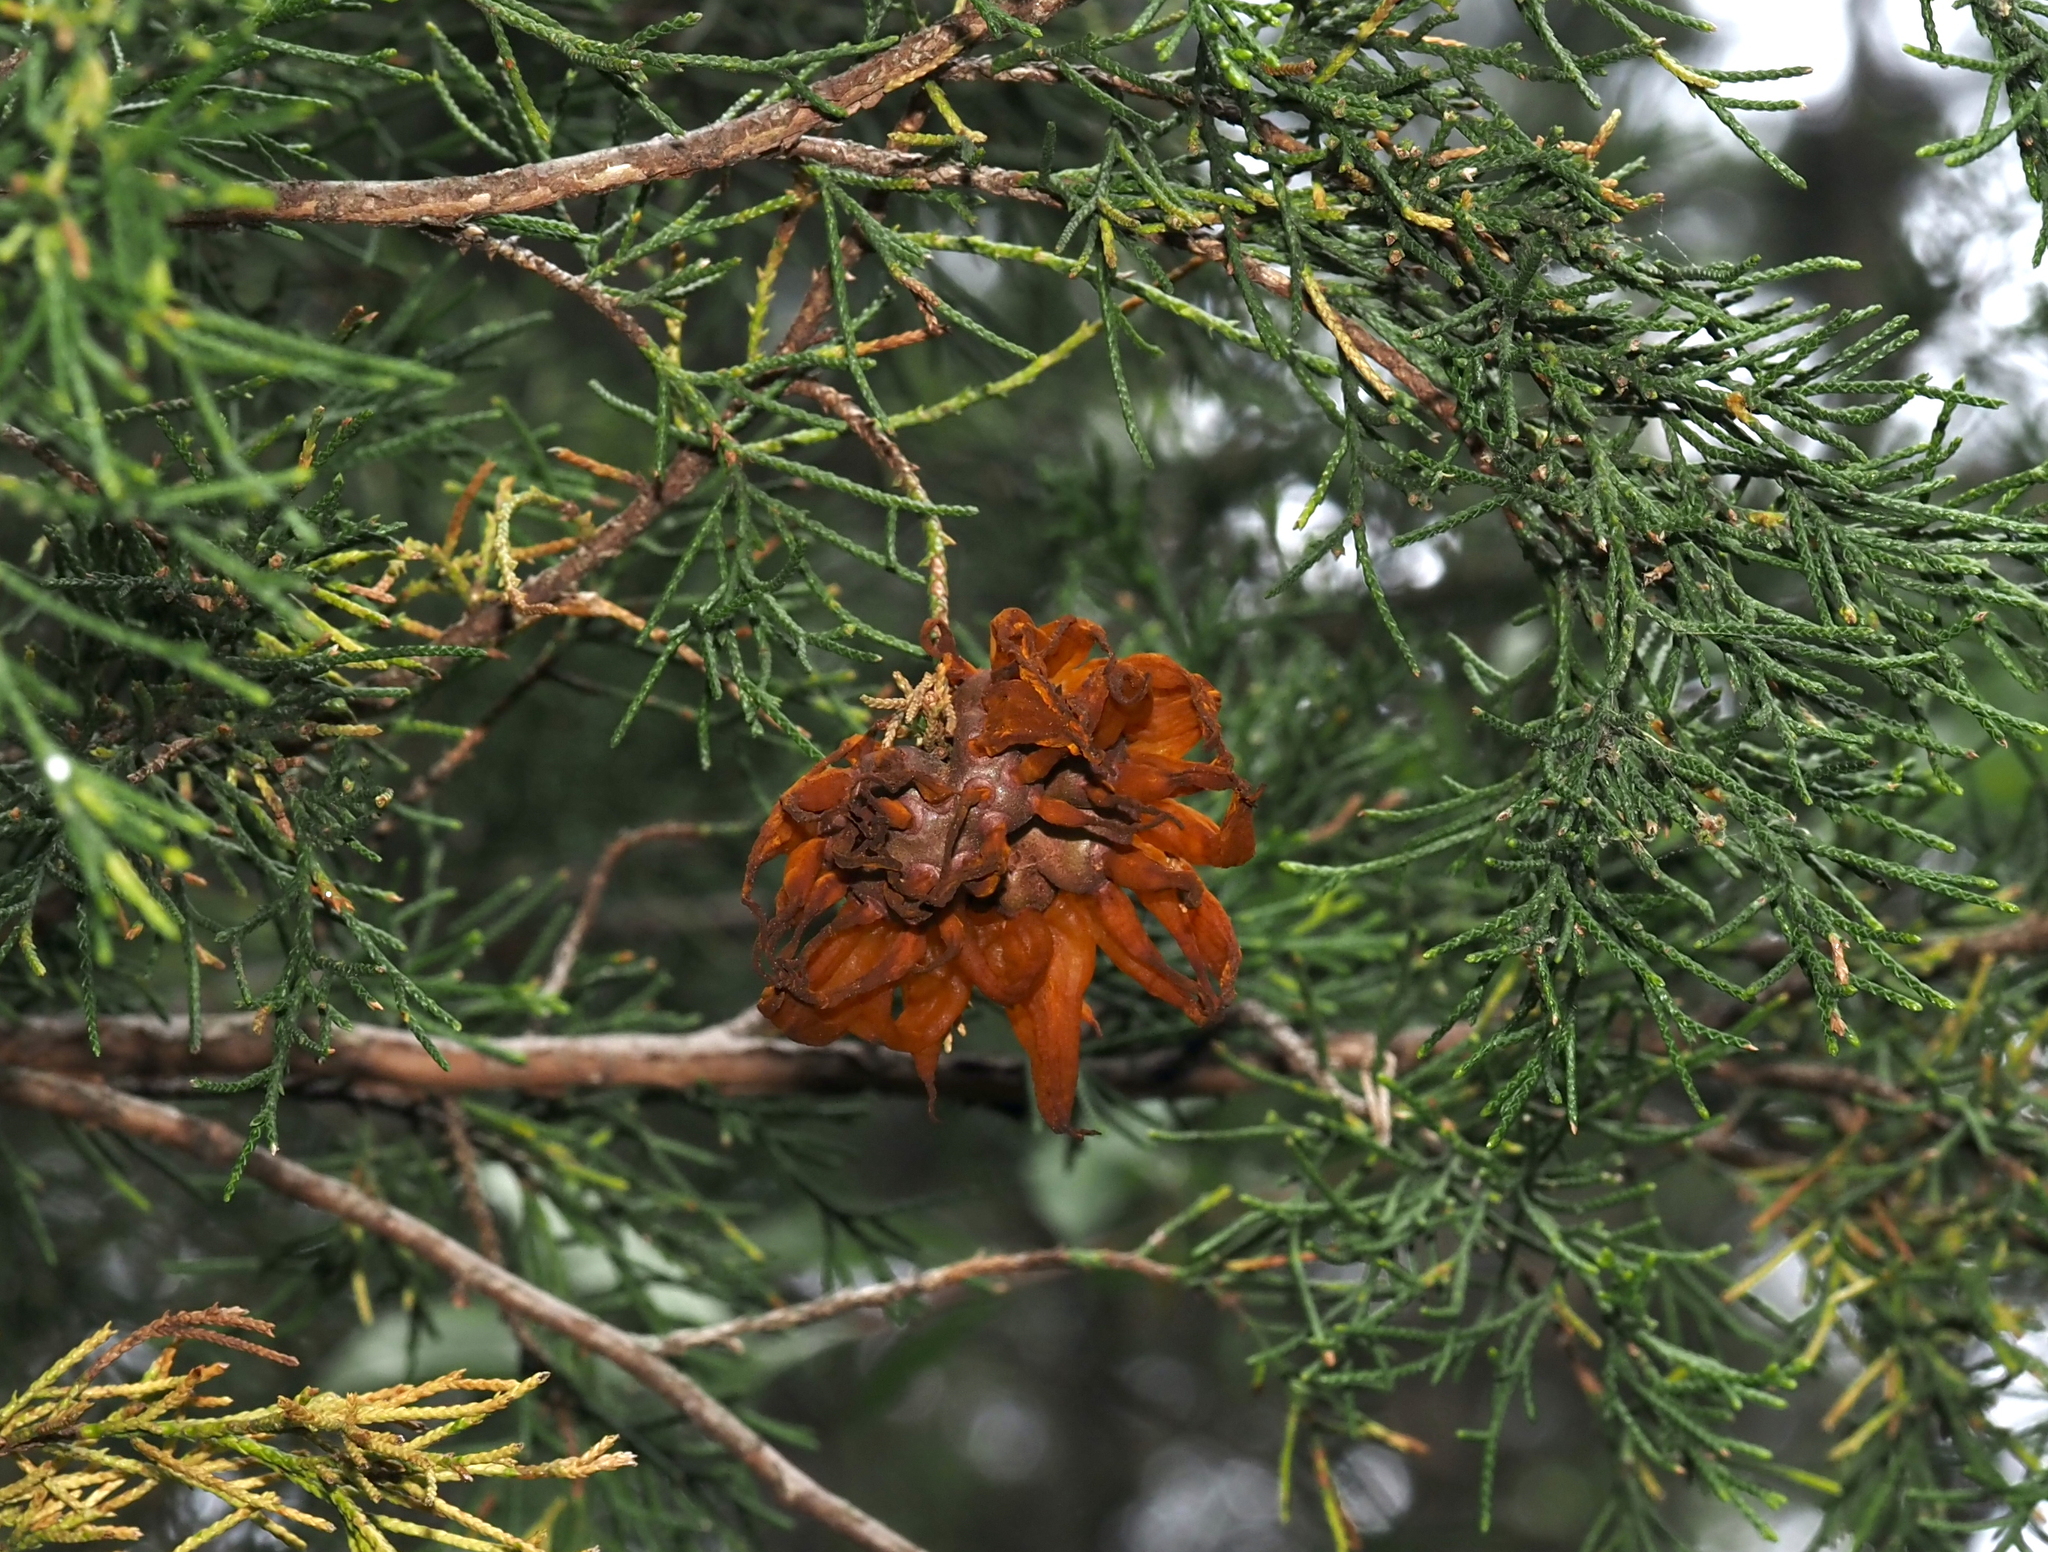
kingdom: Fungi
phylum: Basidiomycota
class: Pucciniomycetes
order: Pucciniales
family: Gymnosporangiaceae
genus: Gymnosporangium
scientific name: Gymnosporangium juniperi-virginianae
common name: Juniper-apple rust
